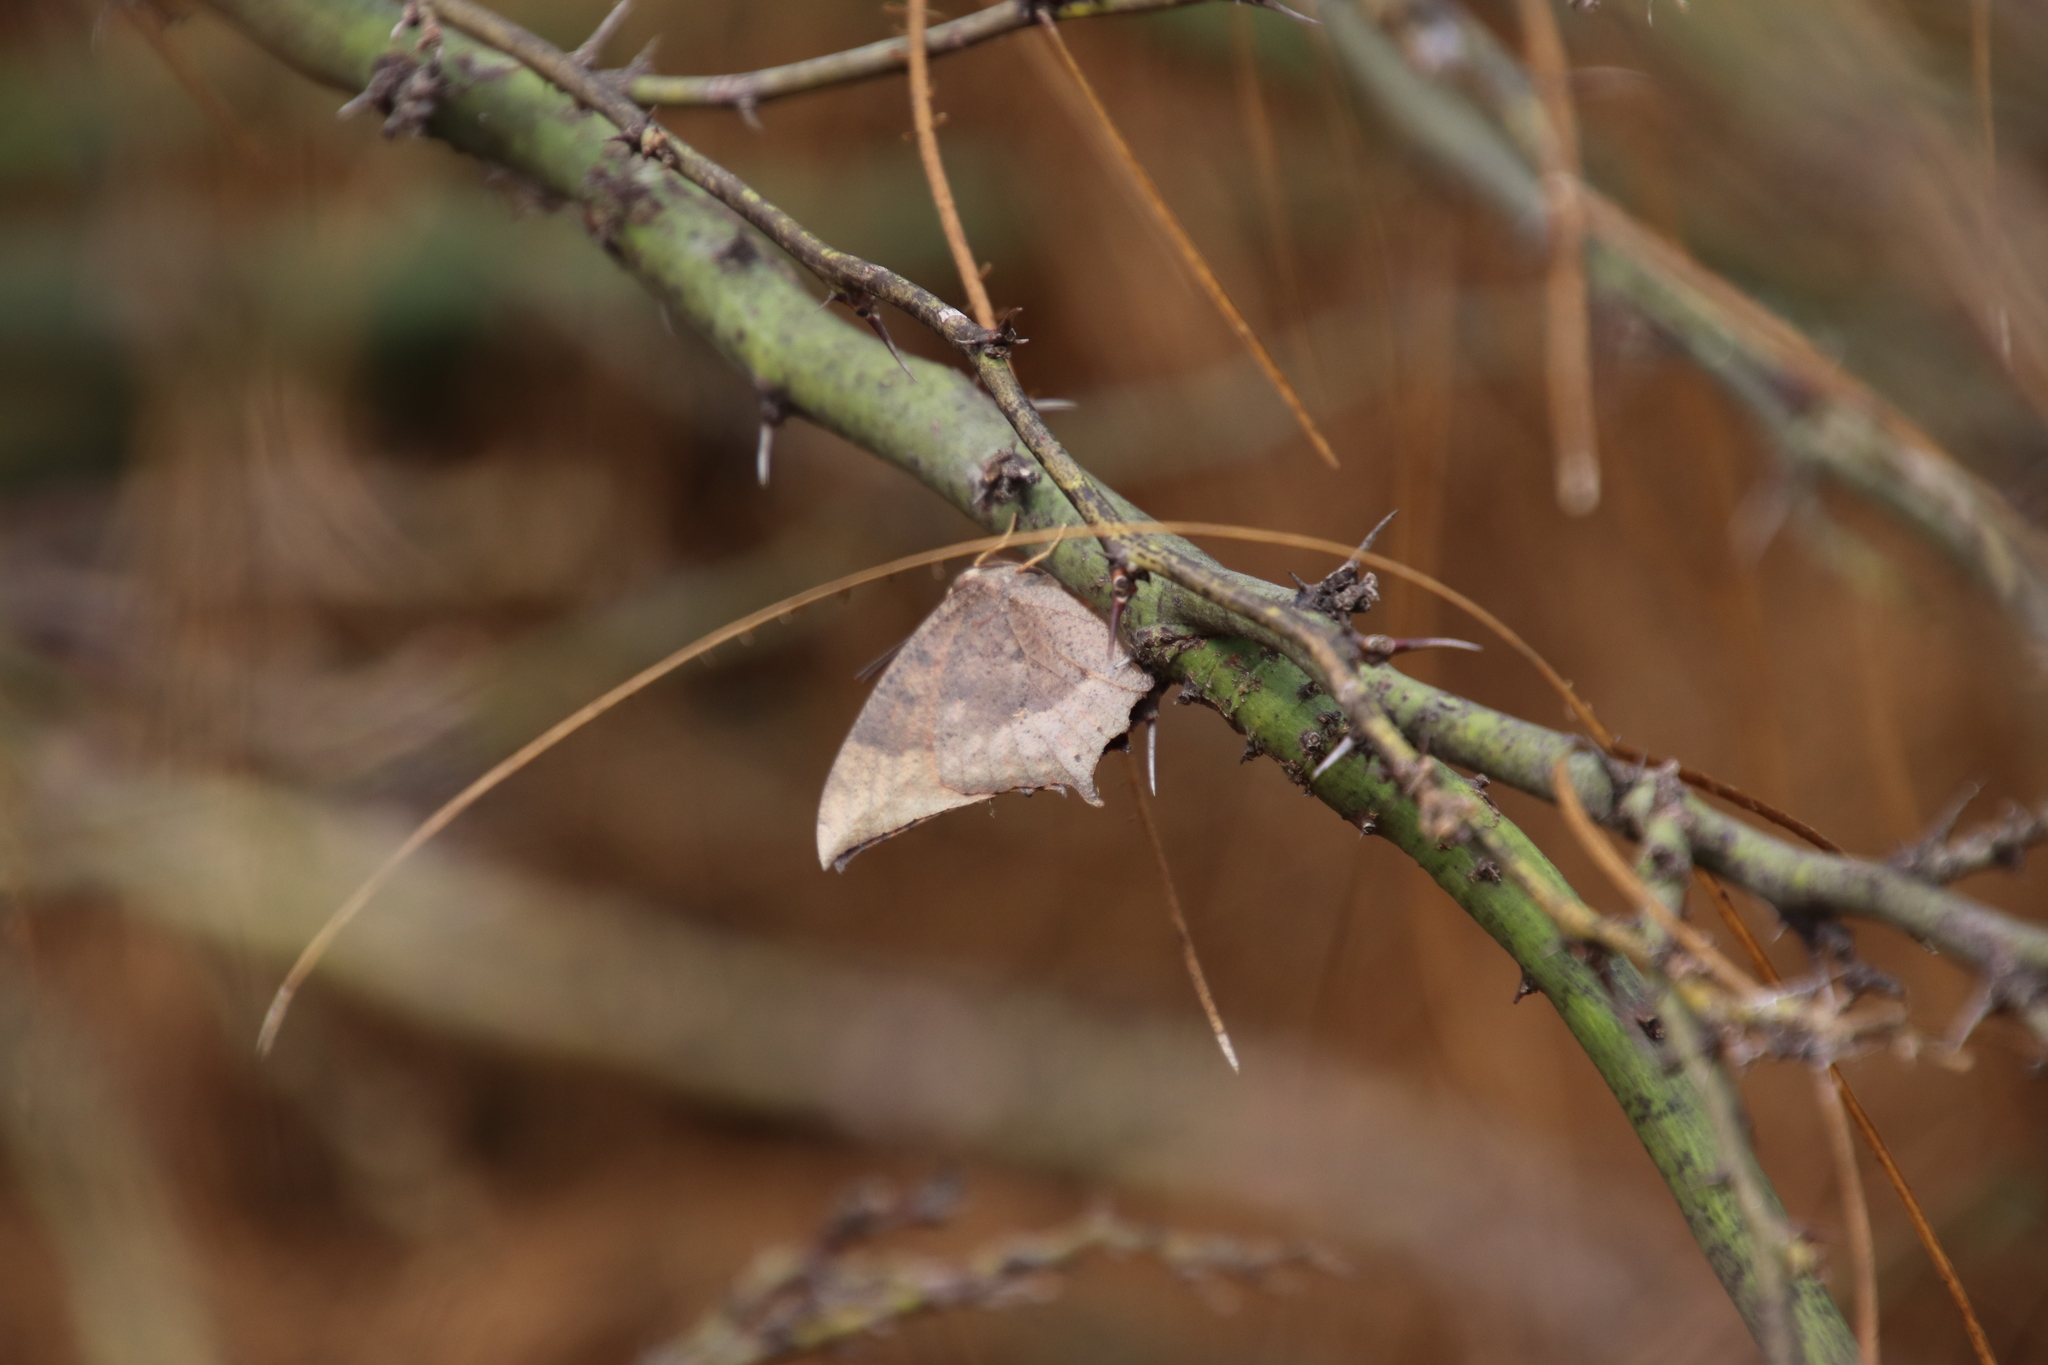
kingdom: Animalia
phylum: Arthropoda
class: Insecta
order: Lepidoptera
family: Nymphalidae
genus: Anaea
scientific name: Anaea aidea
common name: Tropical leafwing
